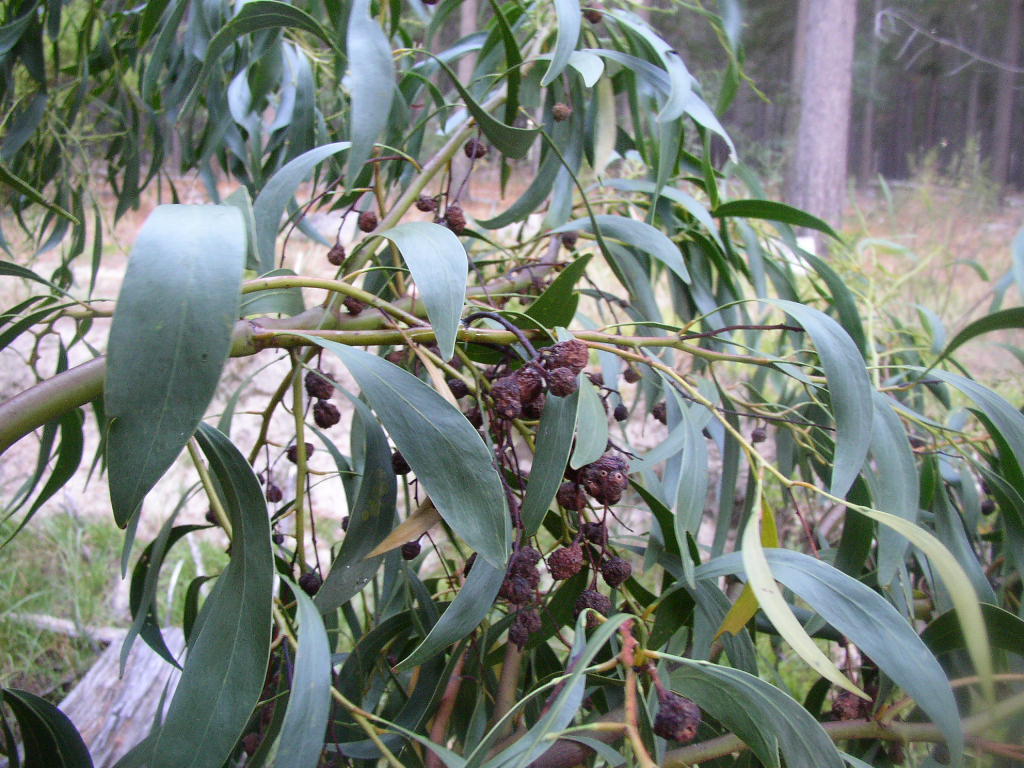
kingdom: Animalia
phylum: Arthropoda
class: Insecta
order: Hymenoptera
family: Pteromalidae
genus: Trichilogaster
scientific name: Trichilogaster signiventris
